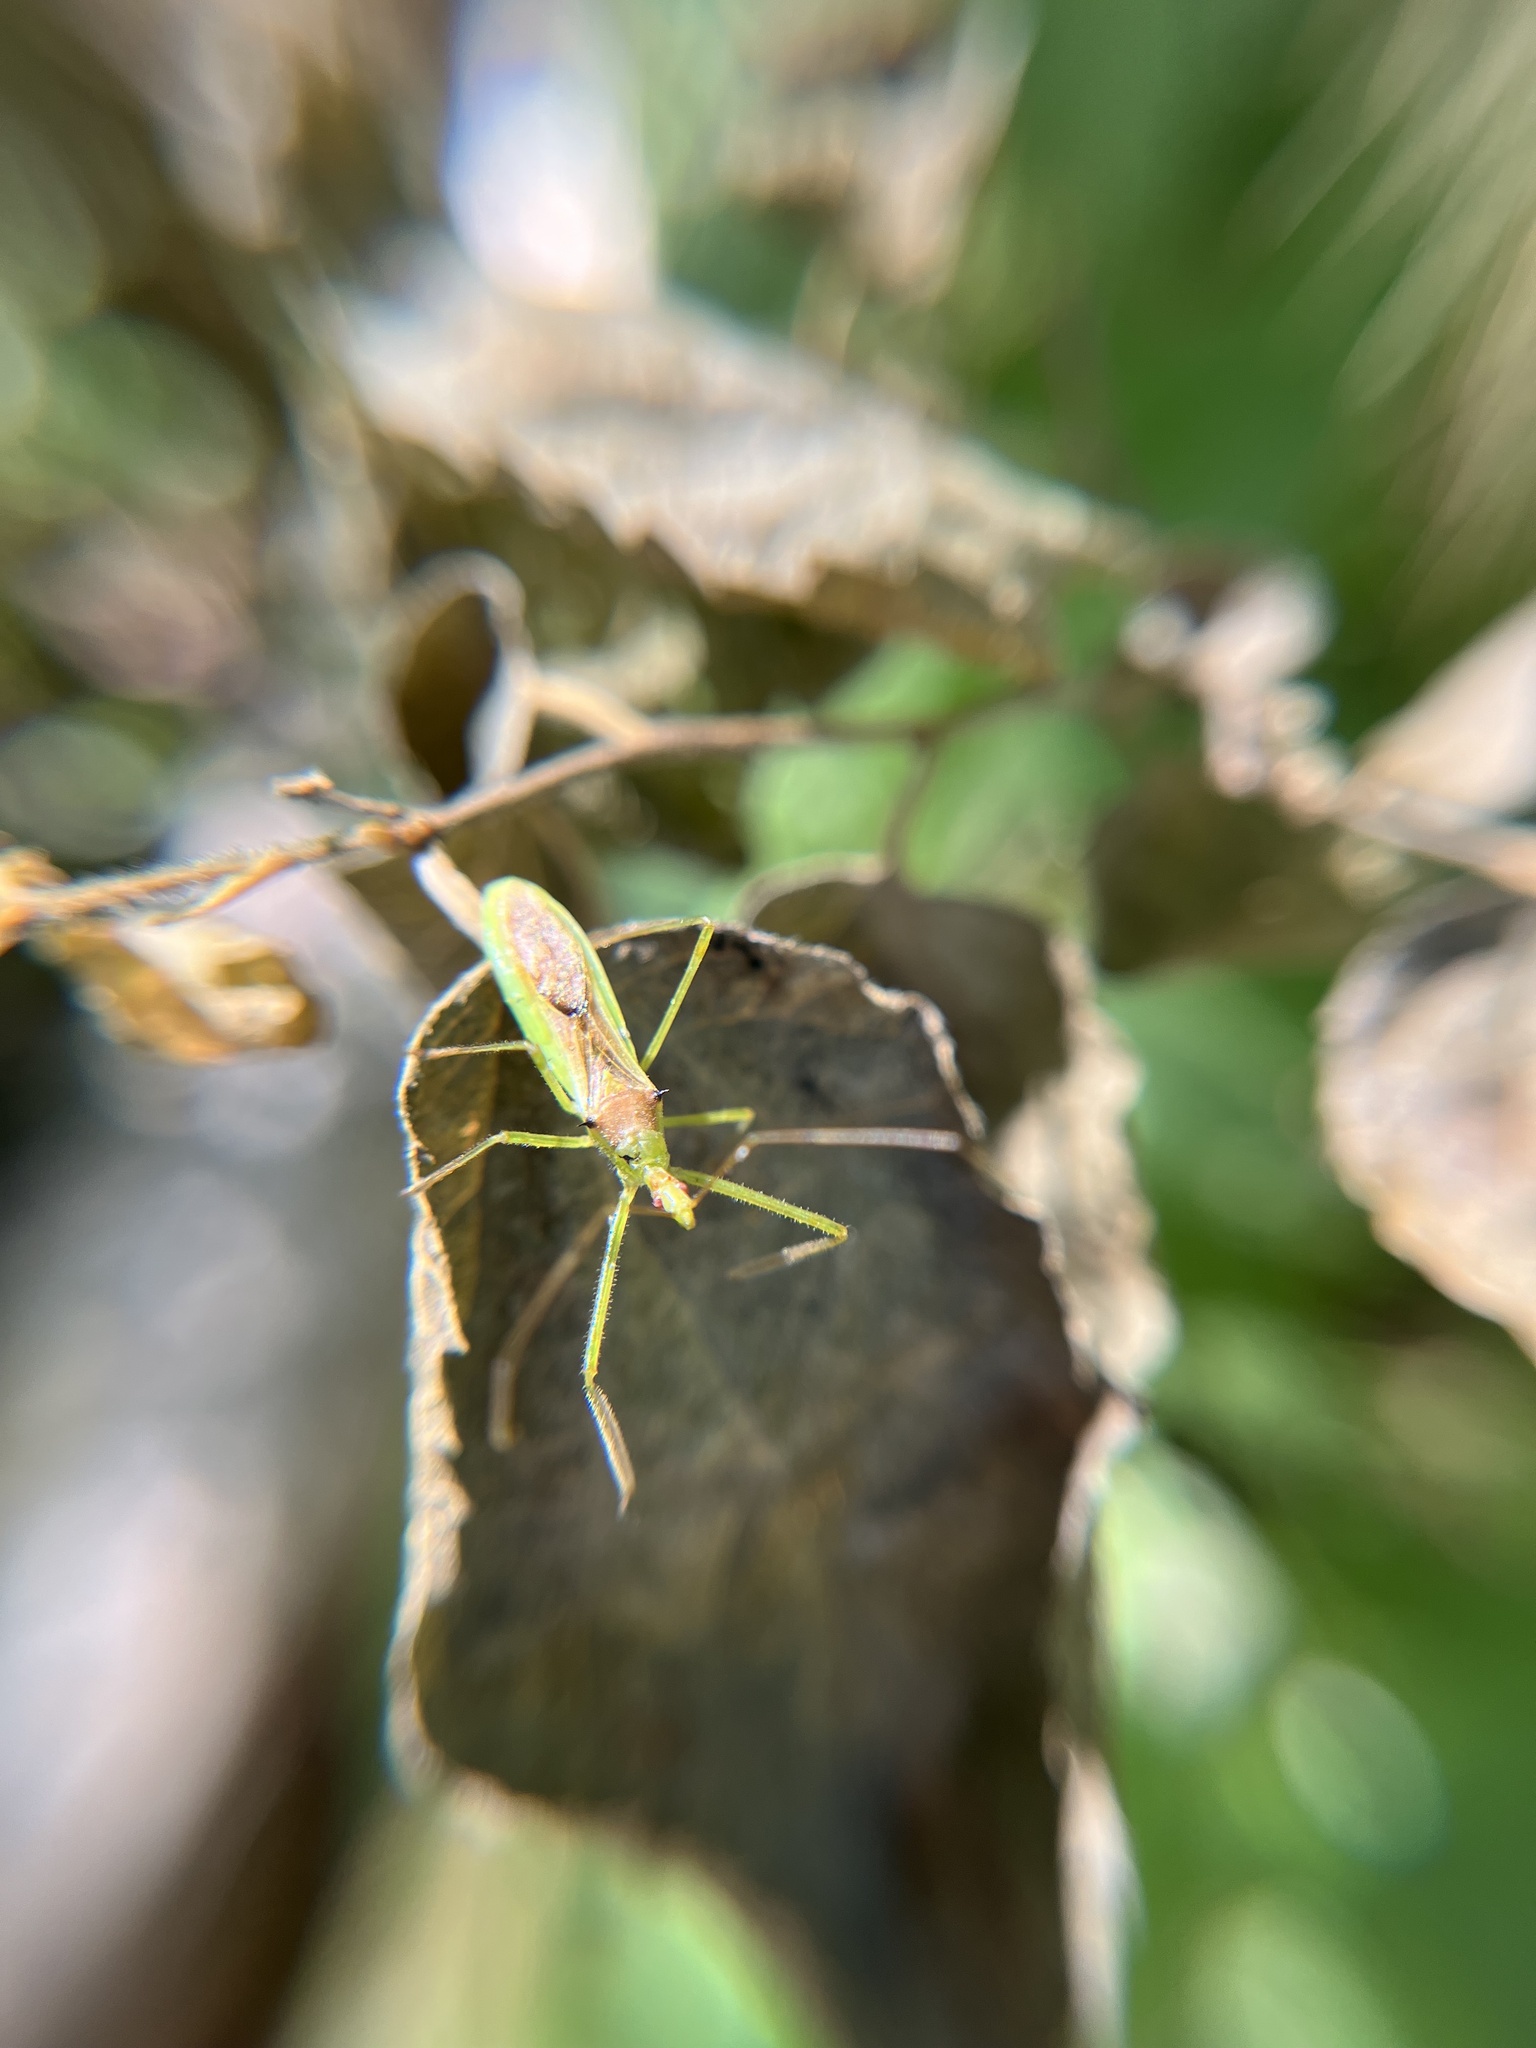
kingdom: Animalia
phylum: Arthropoda
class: Insecta
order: Hemiptera
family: Reduviidae
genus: Zelus
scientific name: Zelus luridus
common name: Pale green assassin bug
